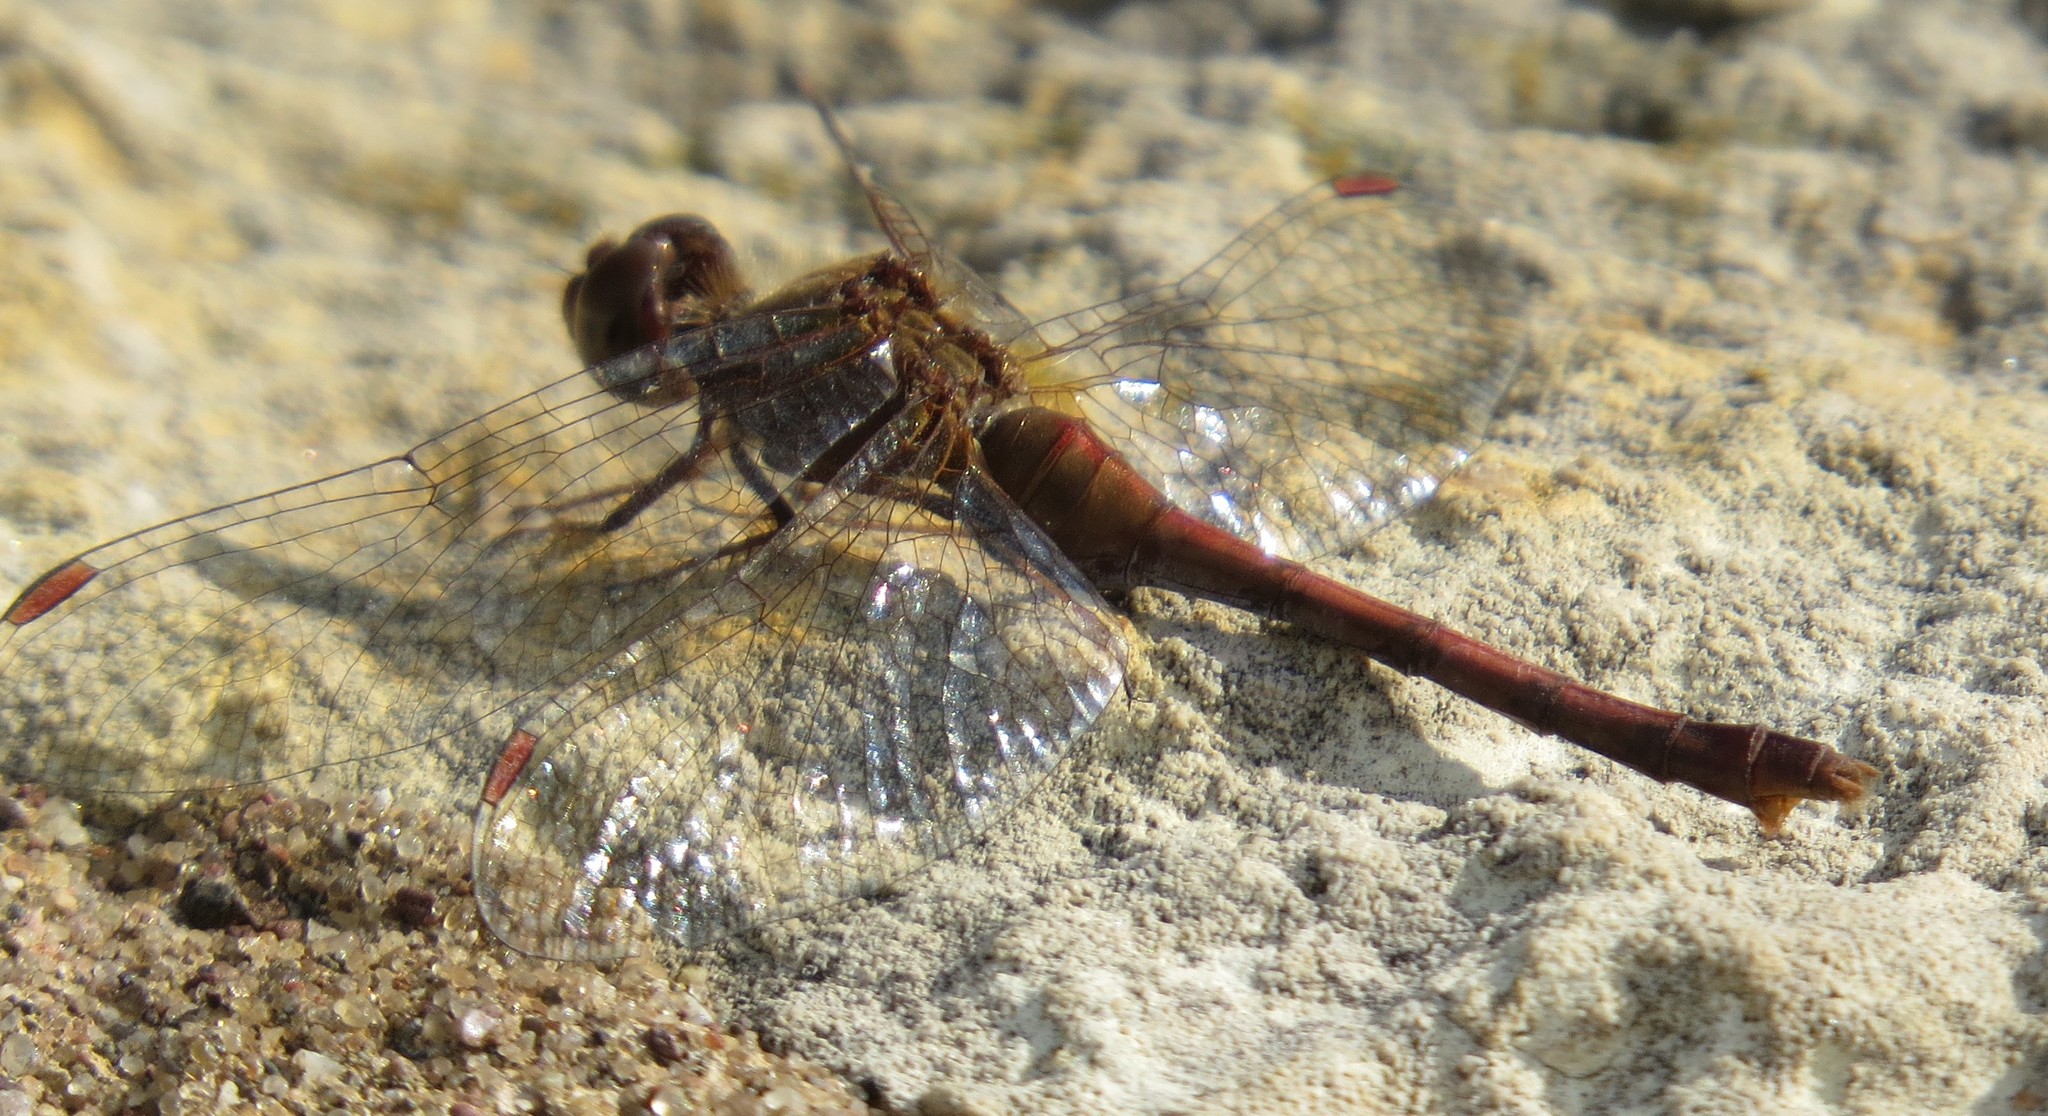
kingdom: Animalia
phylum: Arthropoda
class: Insecta
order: Odonata
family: Libellulidae
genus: Sympetrum
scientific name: Sympetrum vicinum
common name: Autumn meadowhawk
